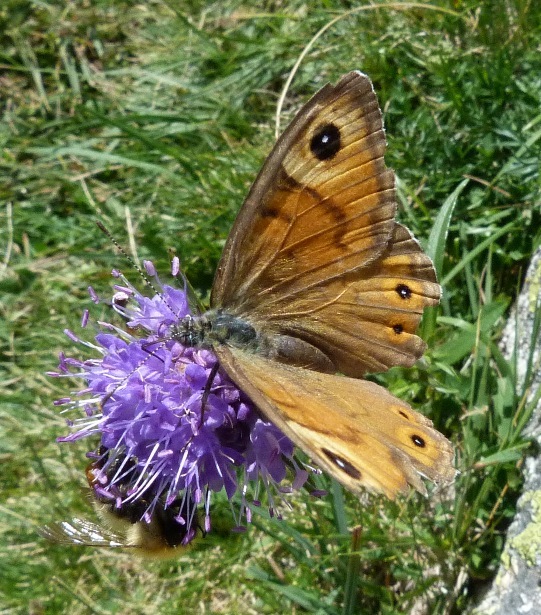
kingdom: Animalia
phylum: Arthropoda
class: Insecta
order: Lepidoptera
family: Nymphalidae
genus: Pararge
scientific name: Pararge Lasiommata maera
